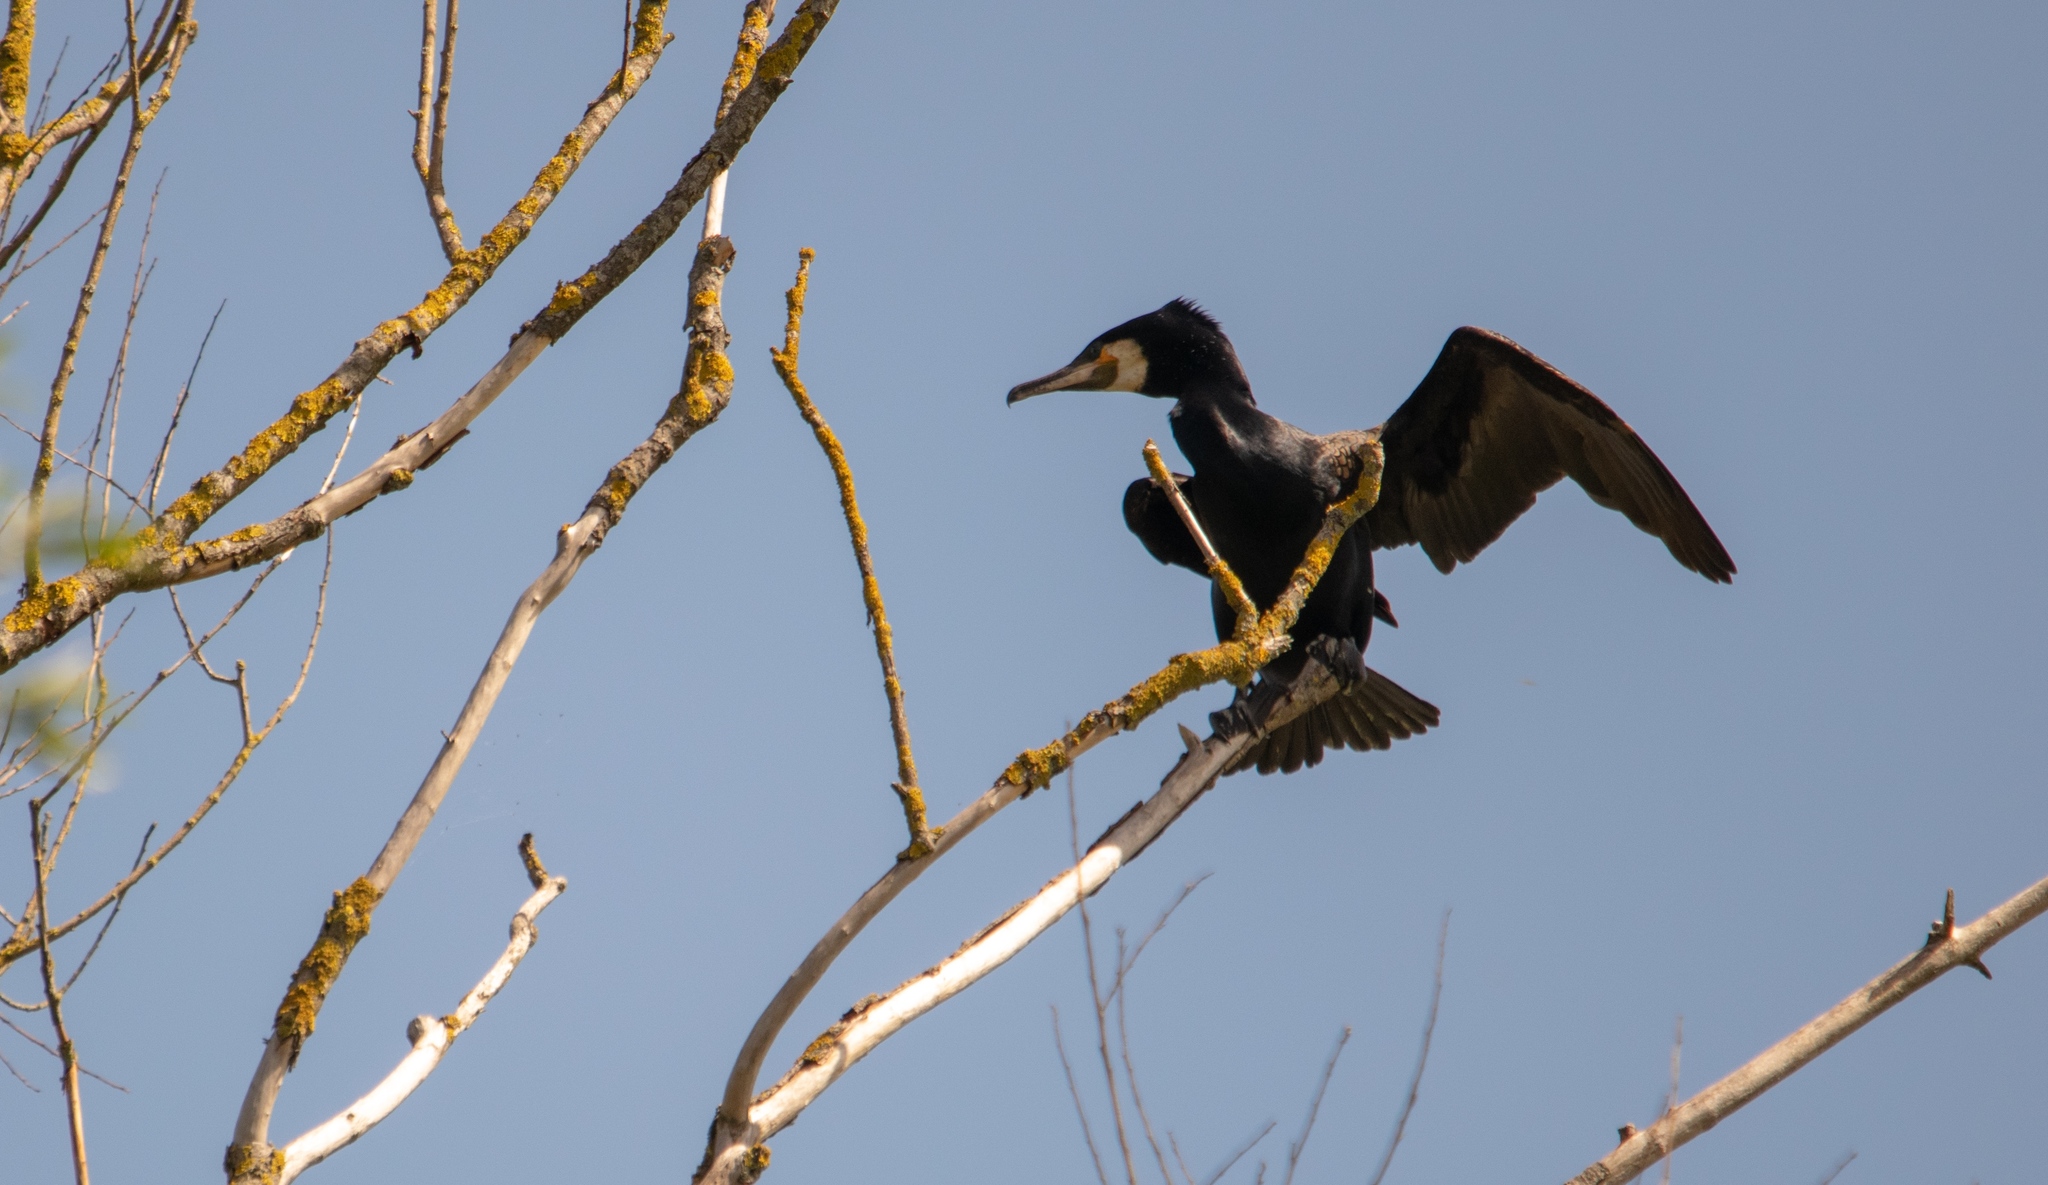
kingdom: Animalia
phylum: Chordata
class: Aves
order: Suliformes
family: Phalacrocoracidae
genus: Phalacrocorax
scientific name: Phalacrocorax carbo
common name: Great cormorant
